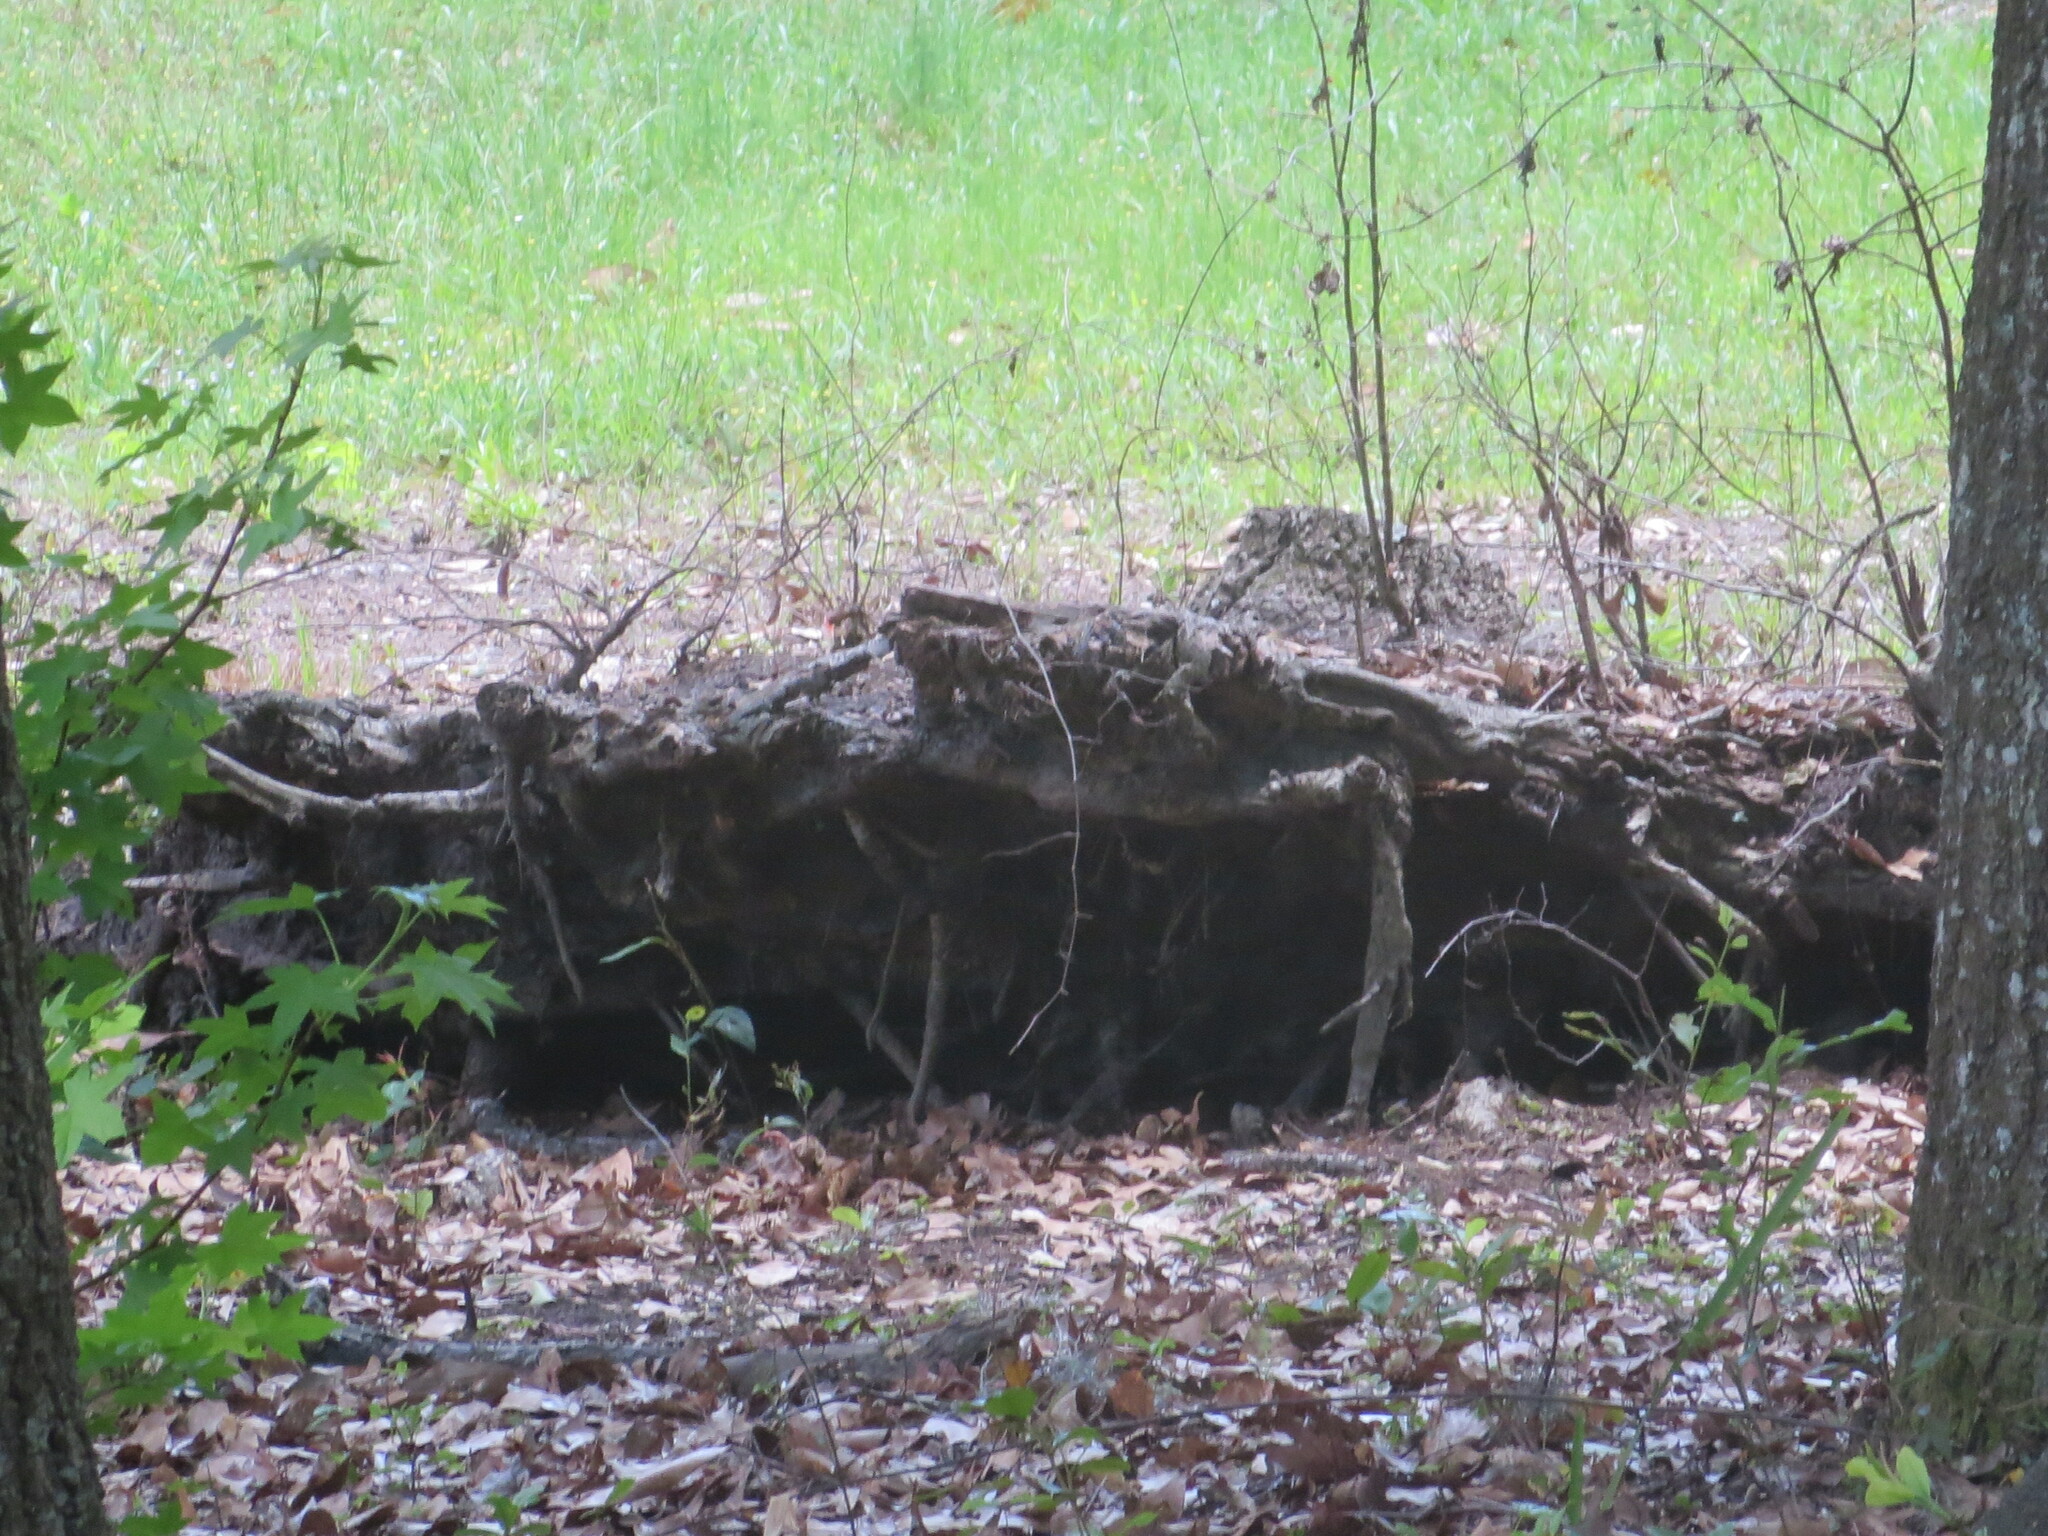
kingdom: Plantae
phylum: Tracheophyta
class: Magnoliopsida
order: Saxifragales
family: Altingiaceae
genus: Liquidambar
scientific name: Liquidambar styraciflua
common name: Sweet gum
